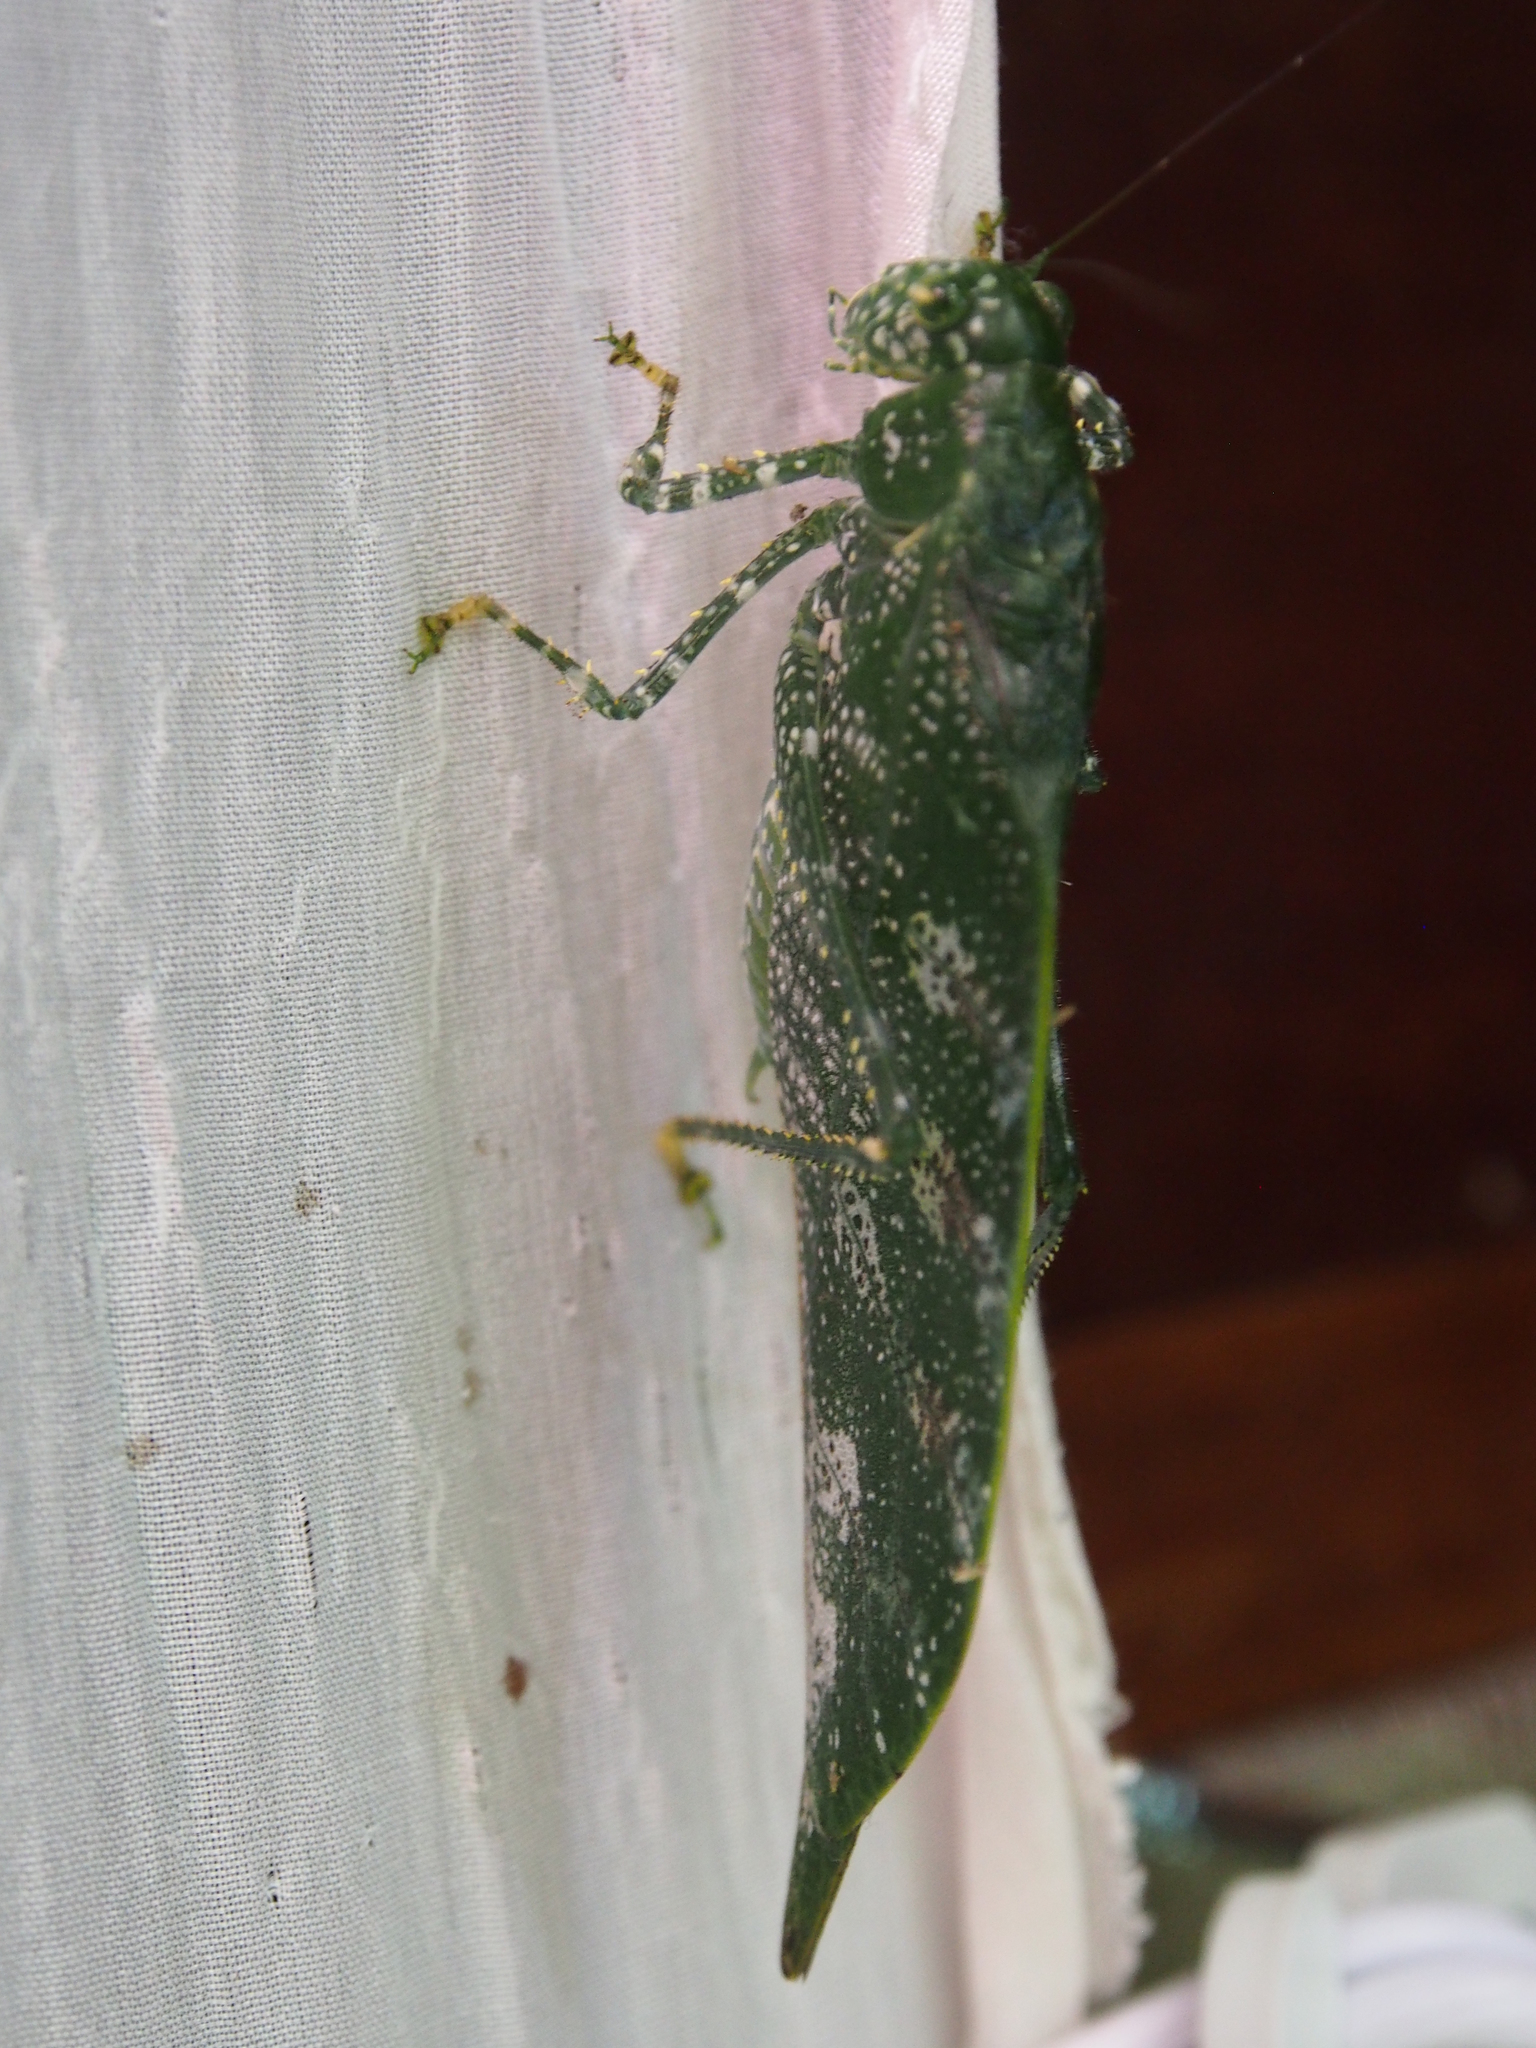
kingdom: Animalia
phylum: Arthropoda
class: Insecta
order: Orthoptera
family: Tettigoniidae
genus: Anapolisia
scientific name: Anapolisia maculosa
